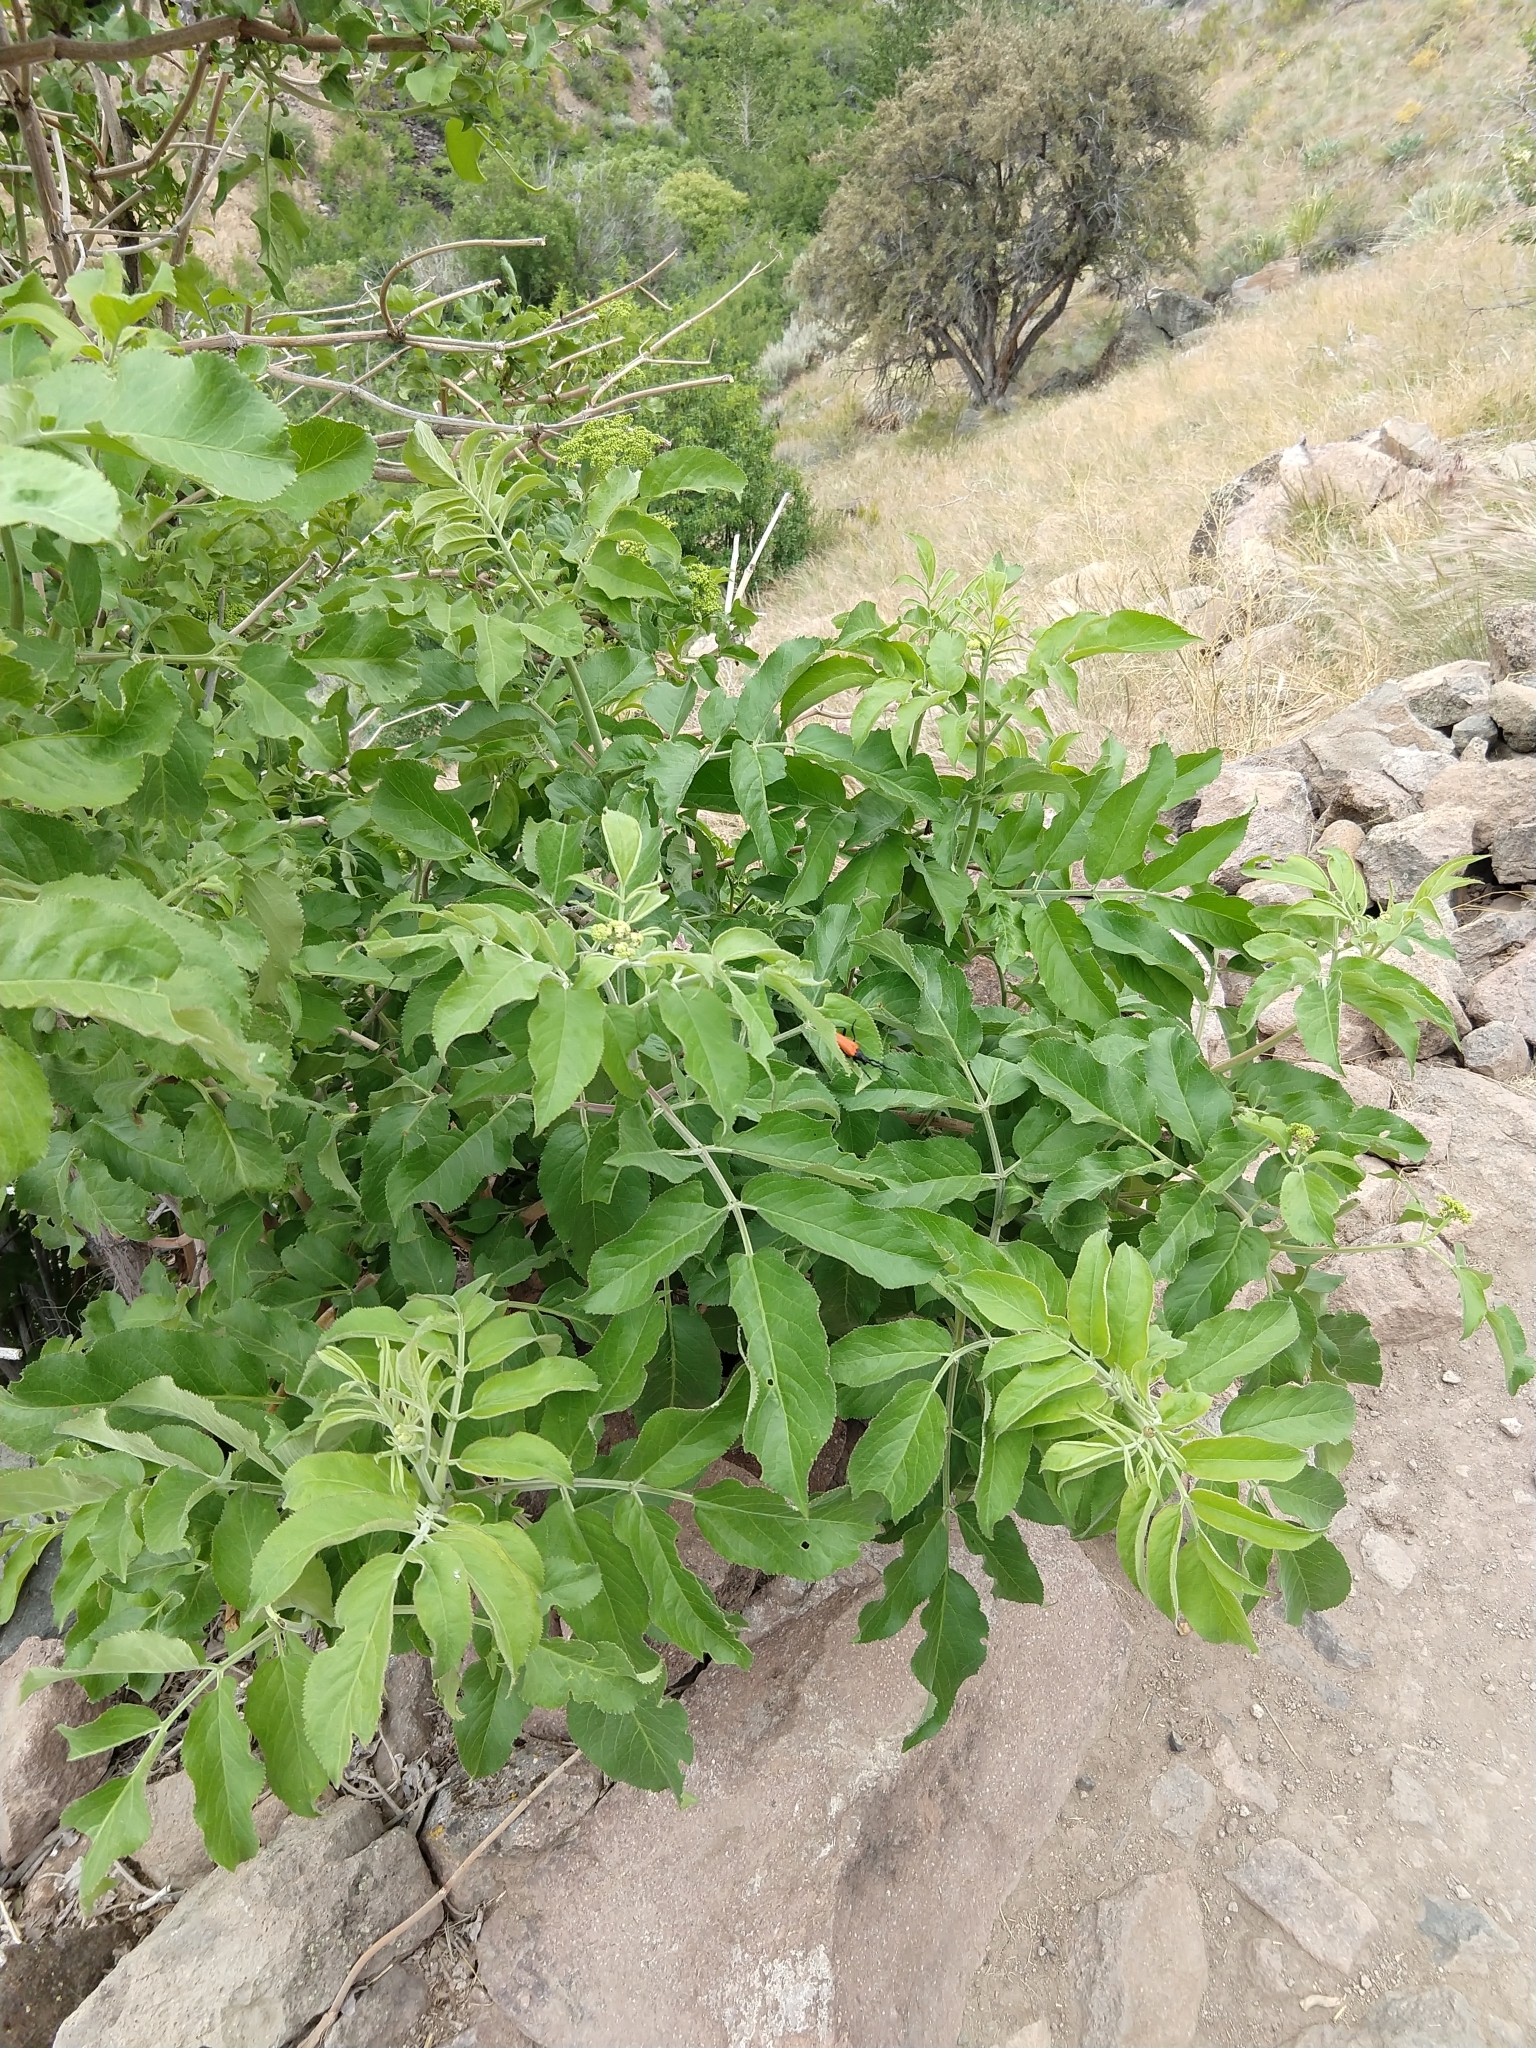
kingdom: Animalia
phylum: Arthropoda
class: Insecta
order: Coleoptera
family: Cerambycidae
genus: Desmocerus
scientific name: Desmocerus aureipennis
